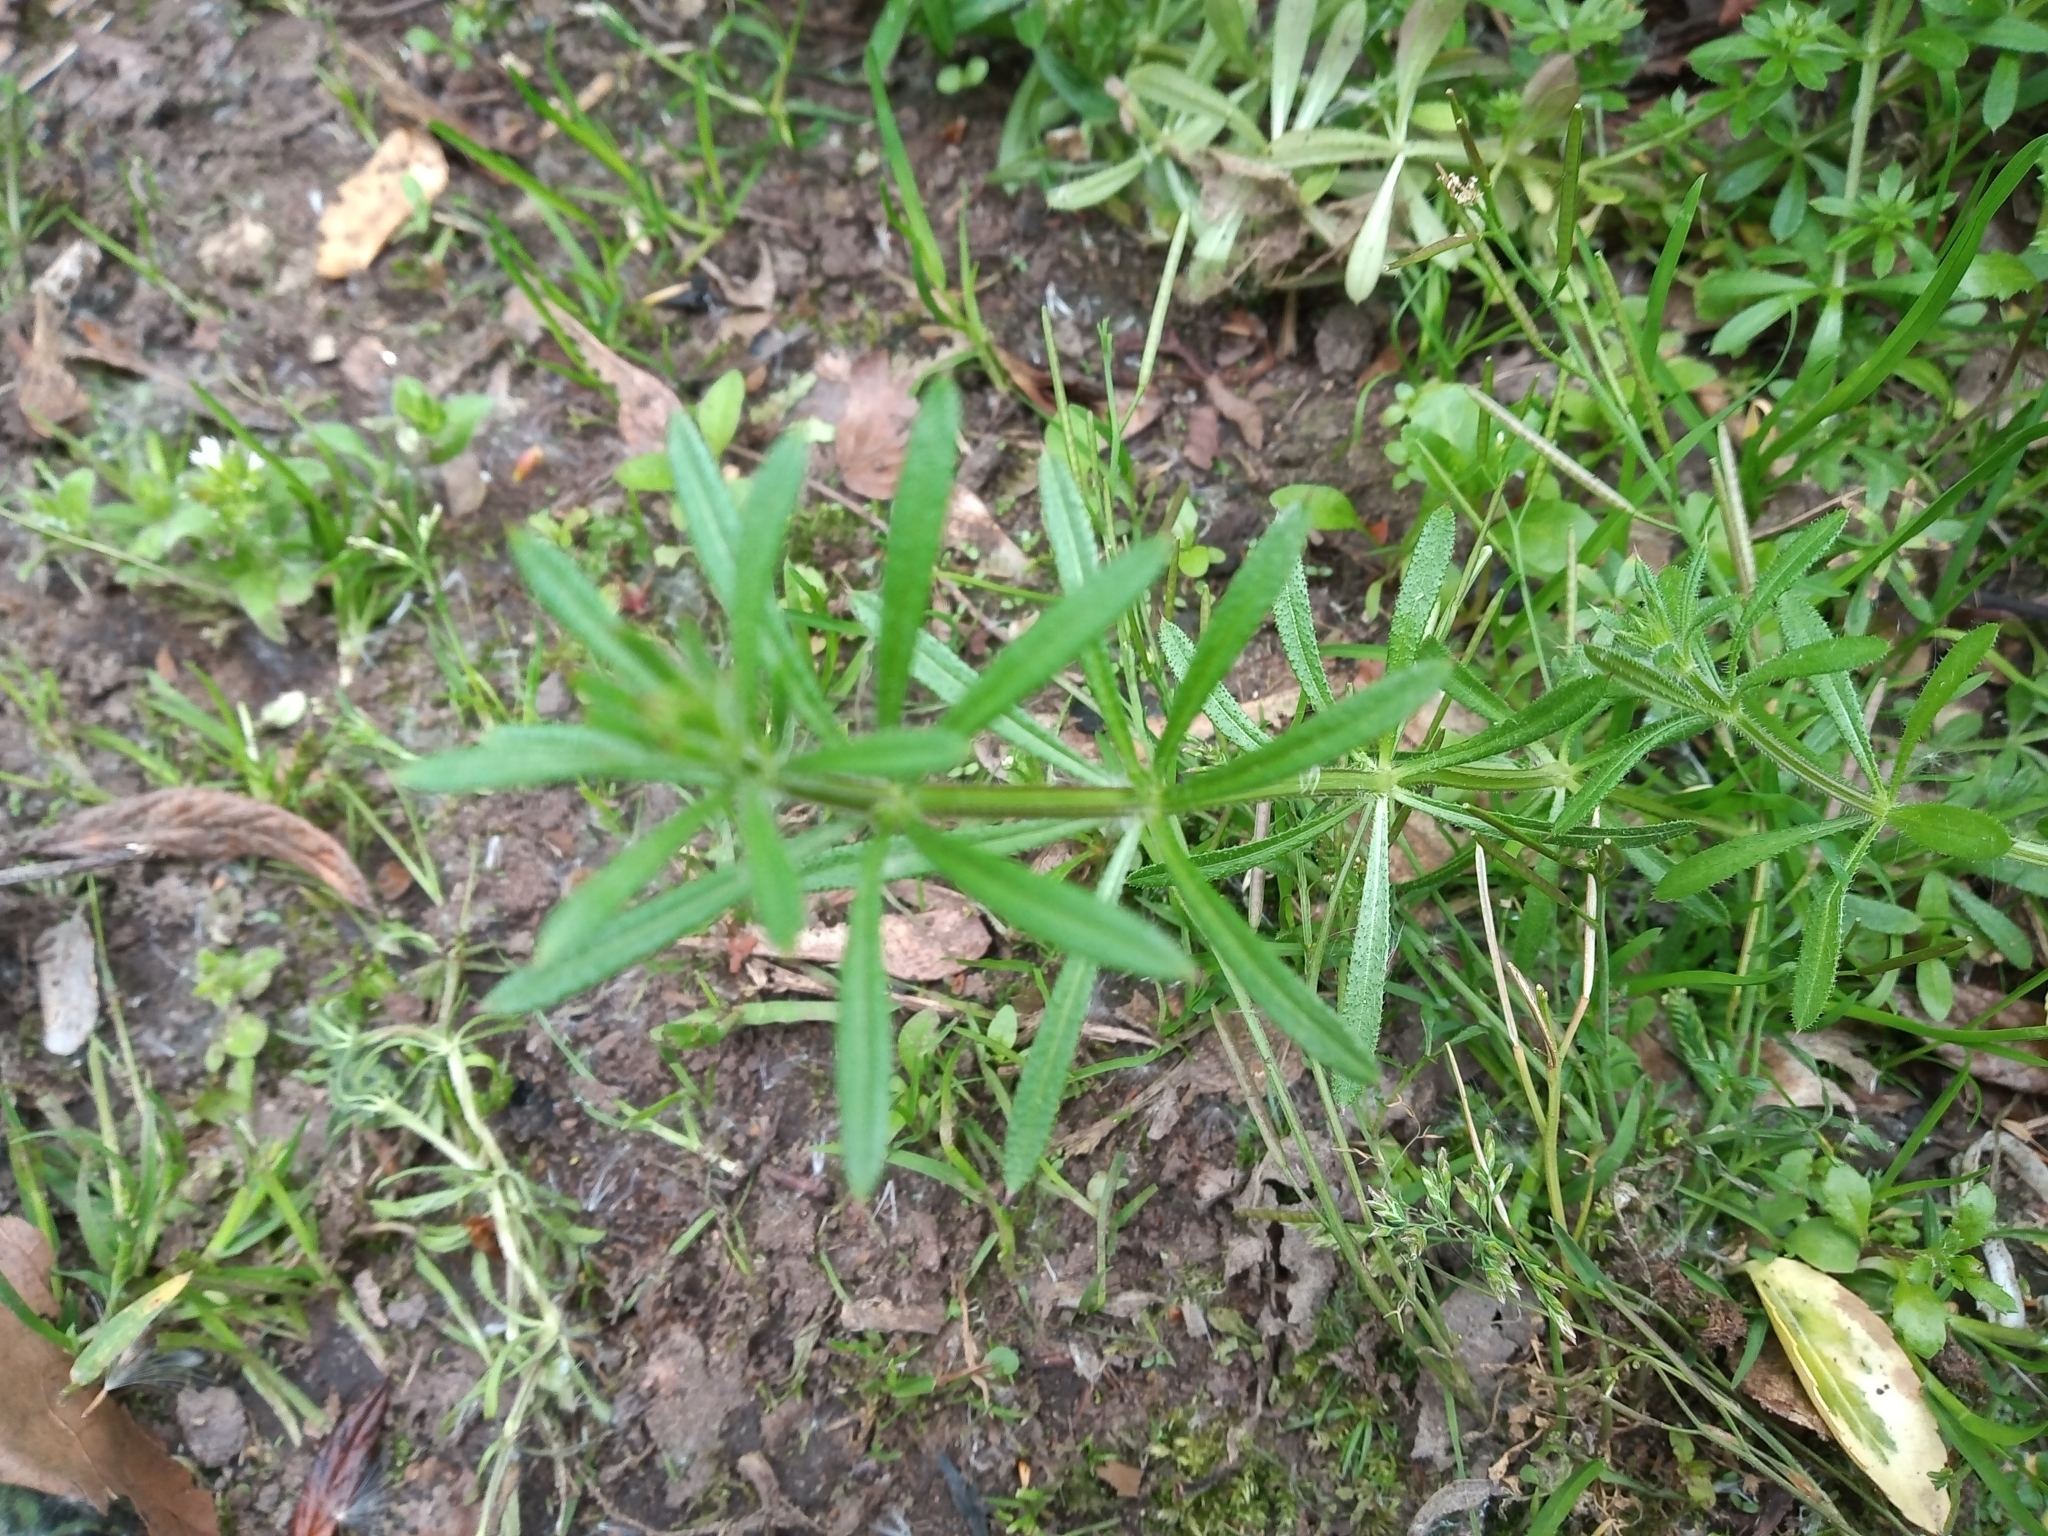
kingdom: Plantae
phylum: Tracheophyta
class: Magnoliopsida
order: Gentianales
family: Rubiaceae
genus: Galium
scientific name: Galium aparine
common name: Cleavers
